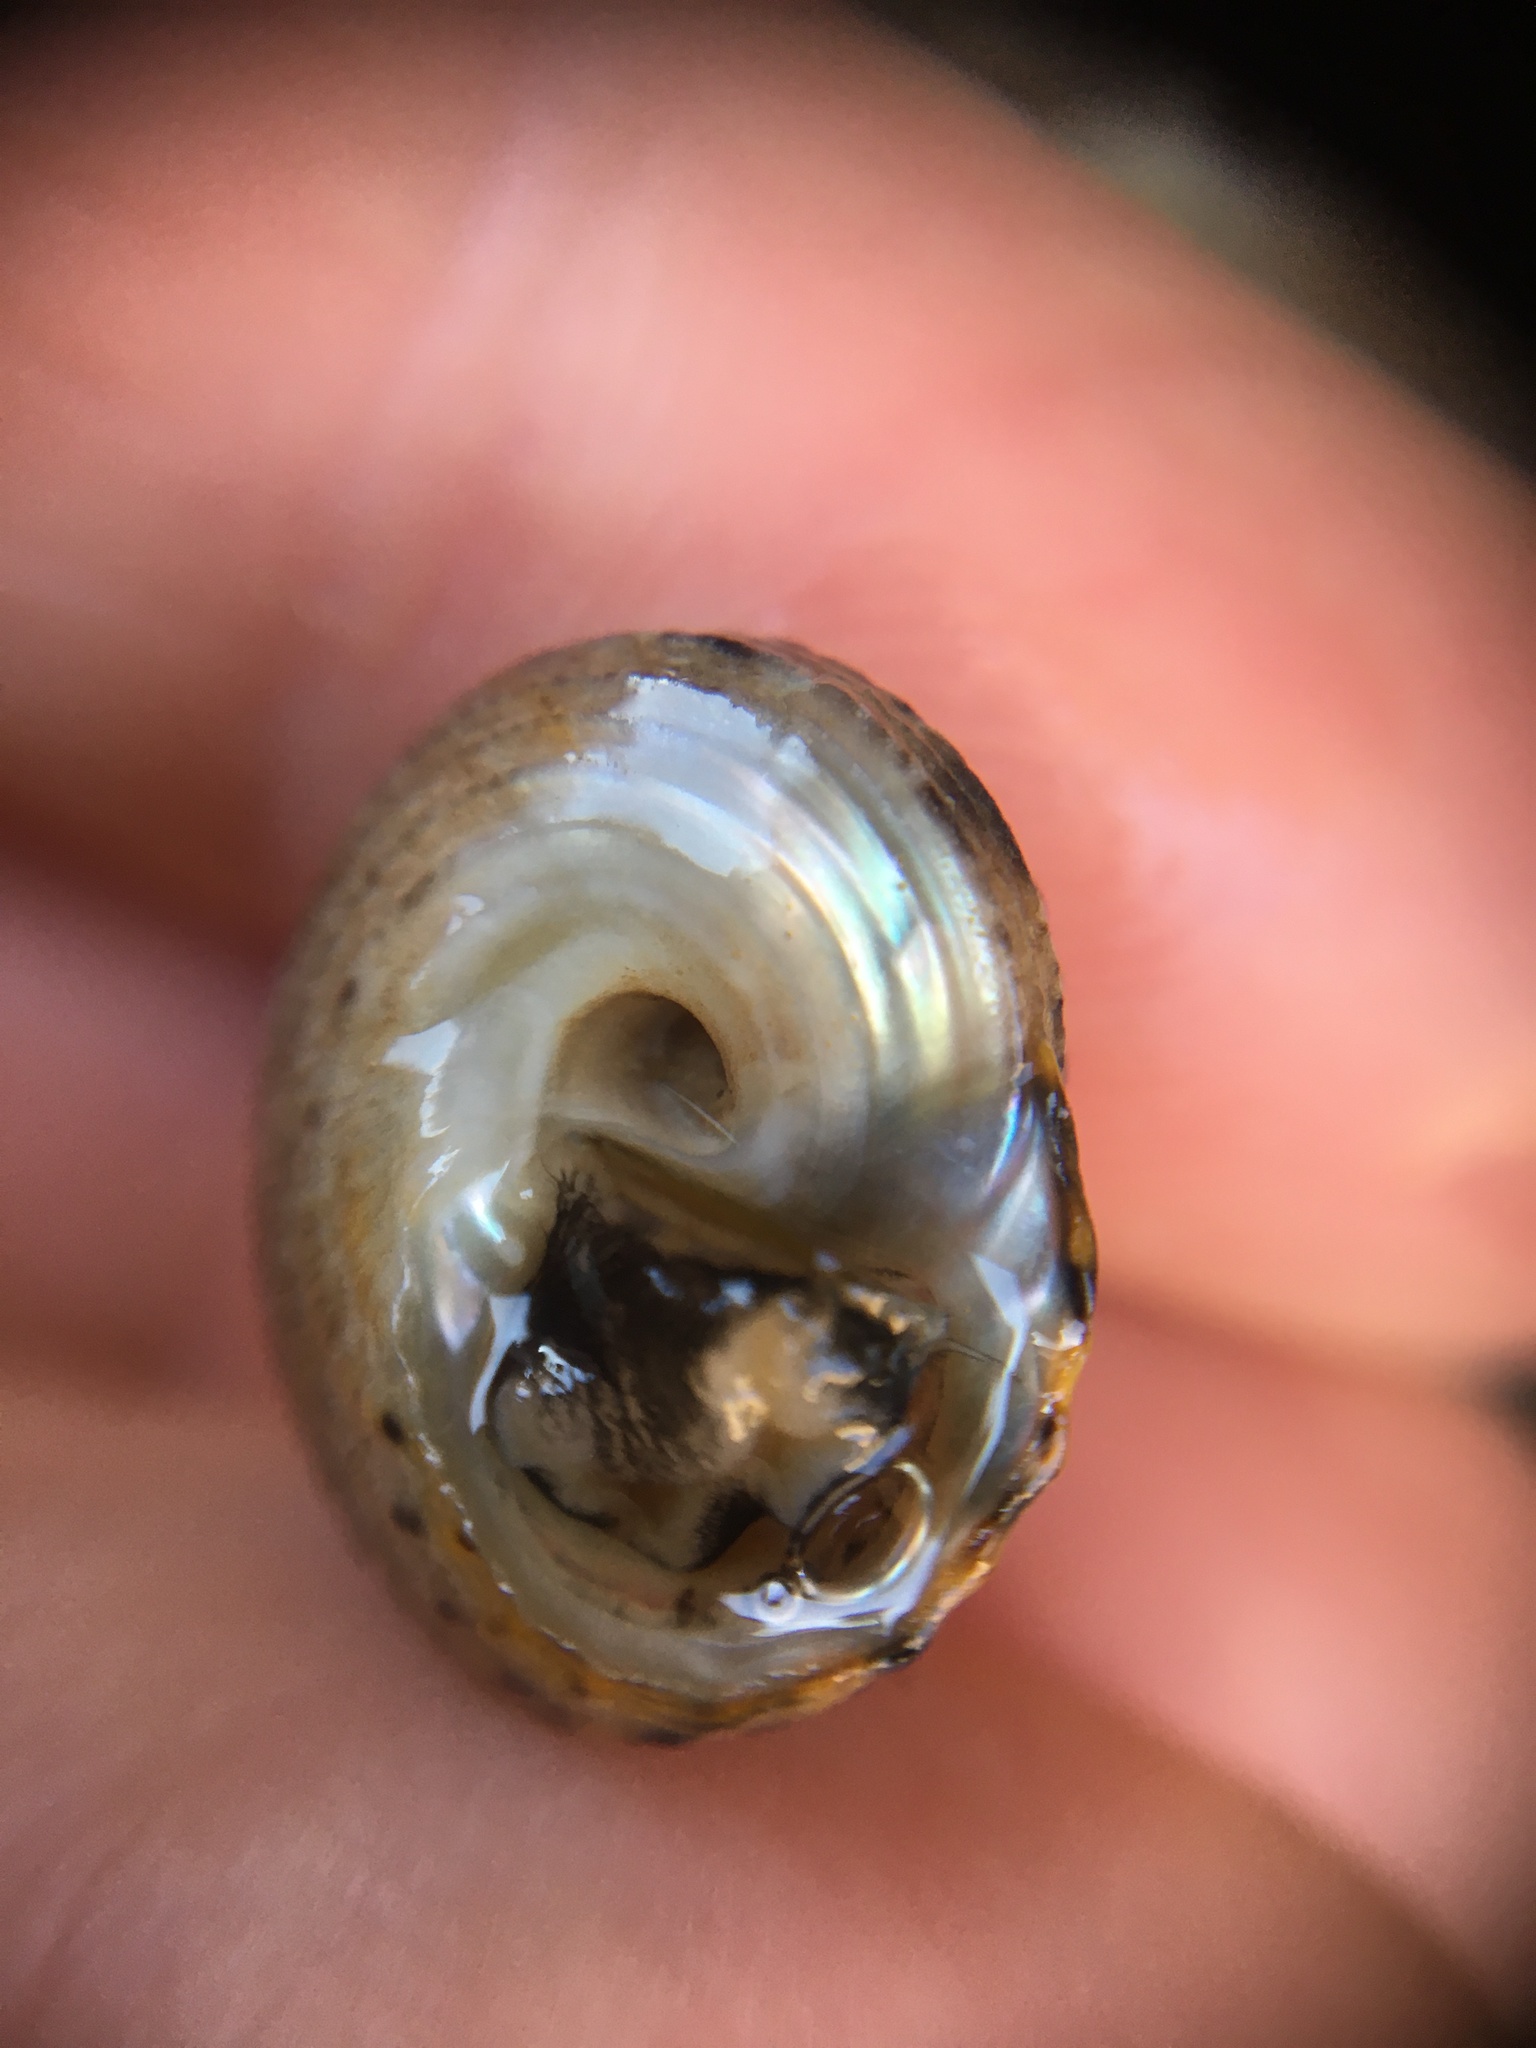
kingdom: Animalia
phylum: Mollusca
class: Gastropoda
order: Trochida
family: Tegulidae
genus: Tegula
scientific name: Tegula eiseni
